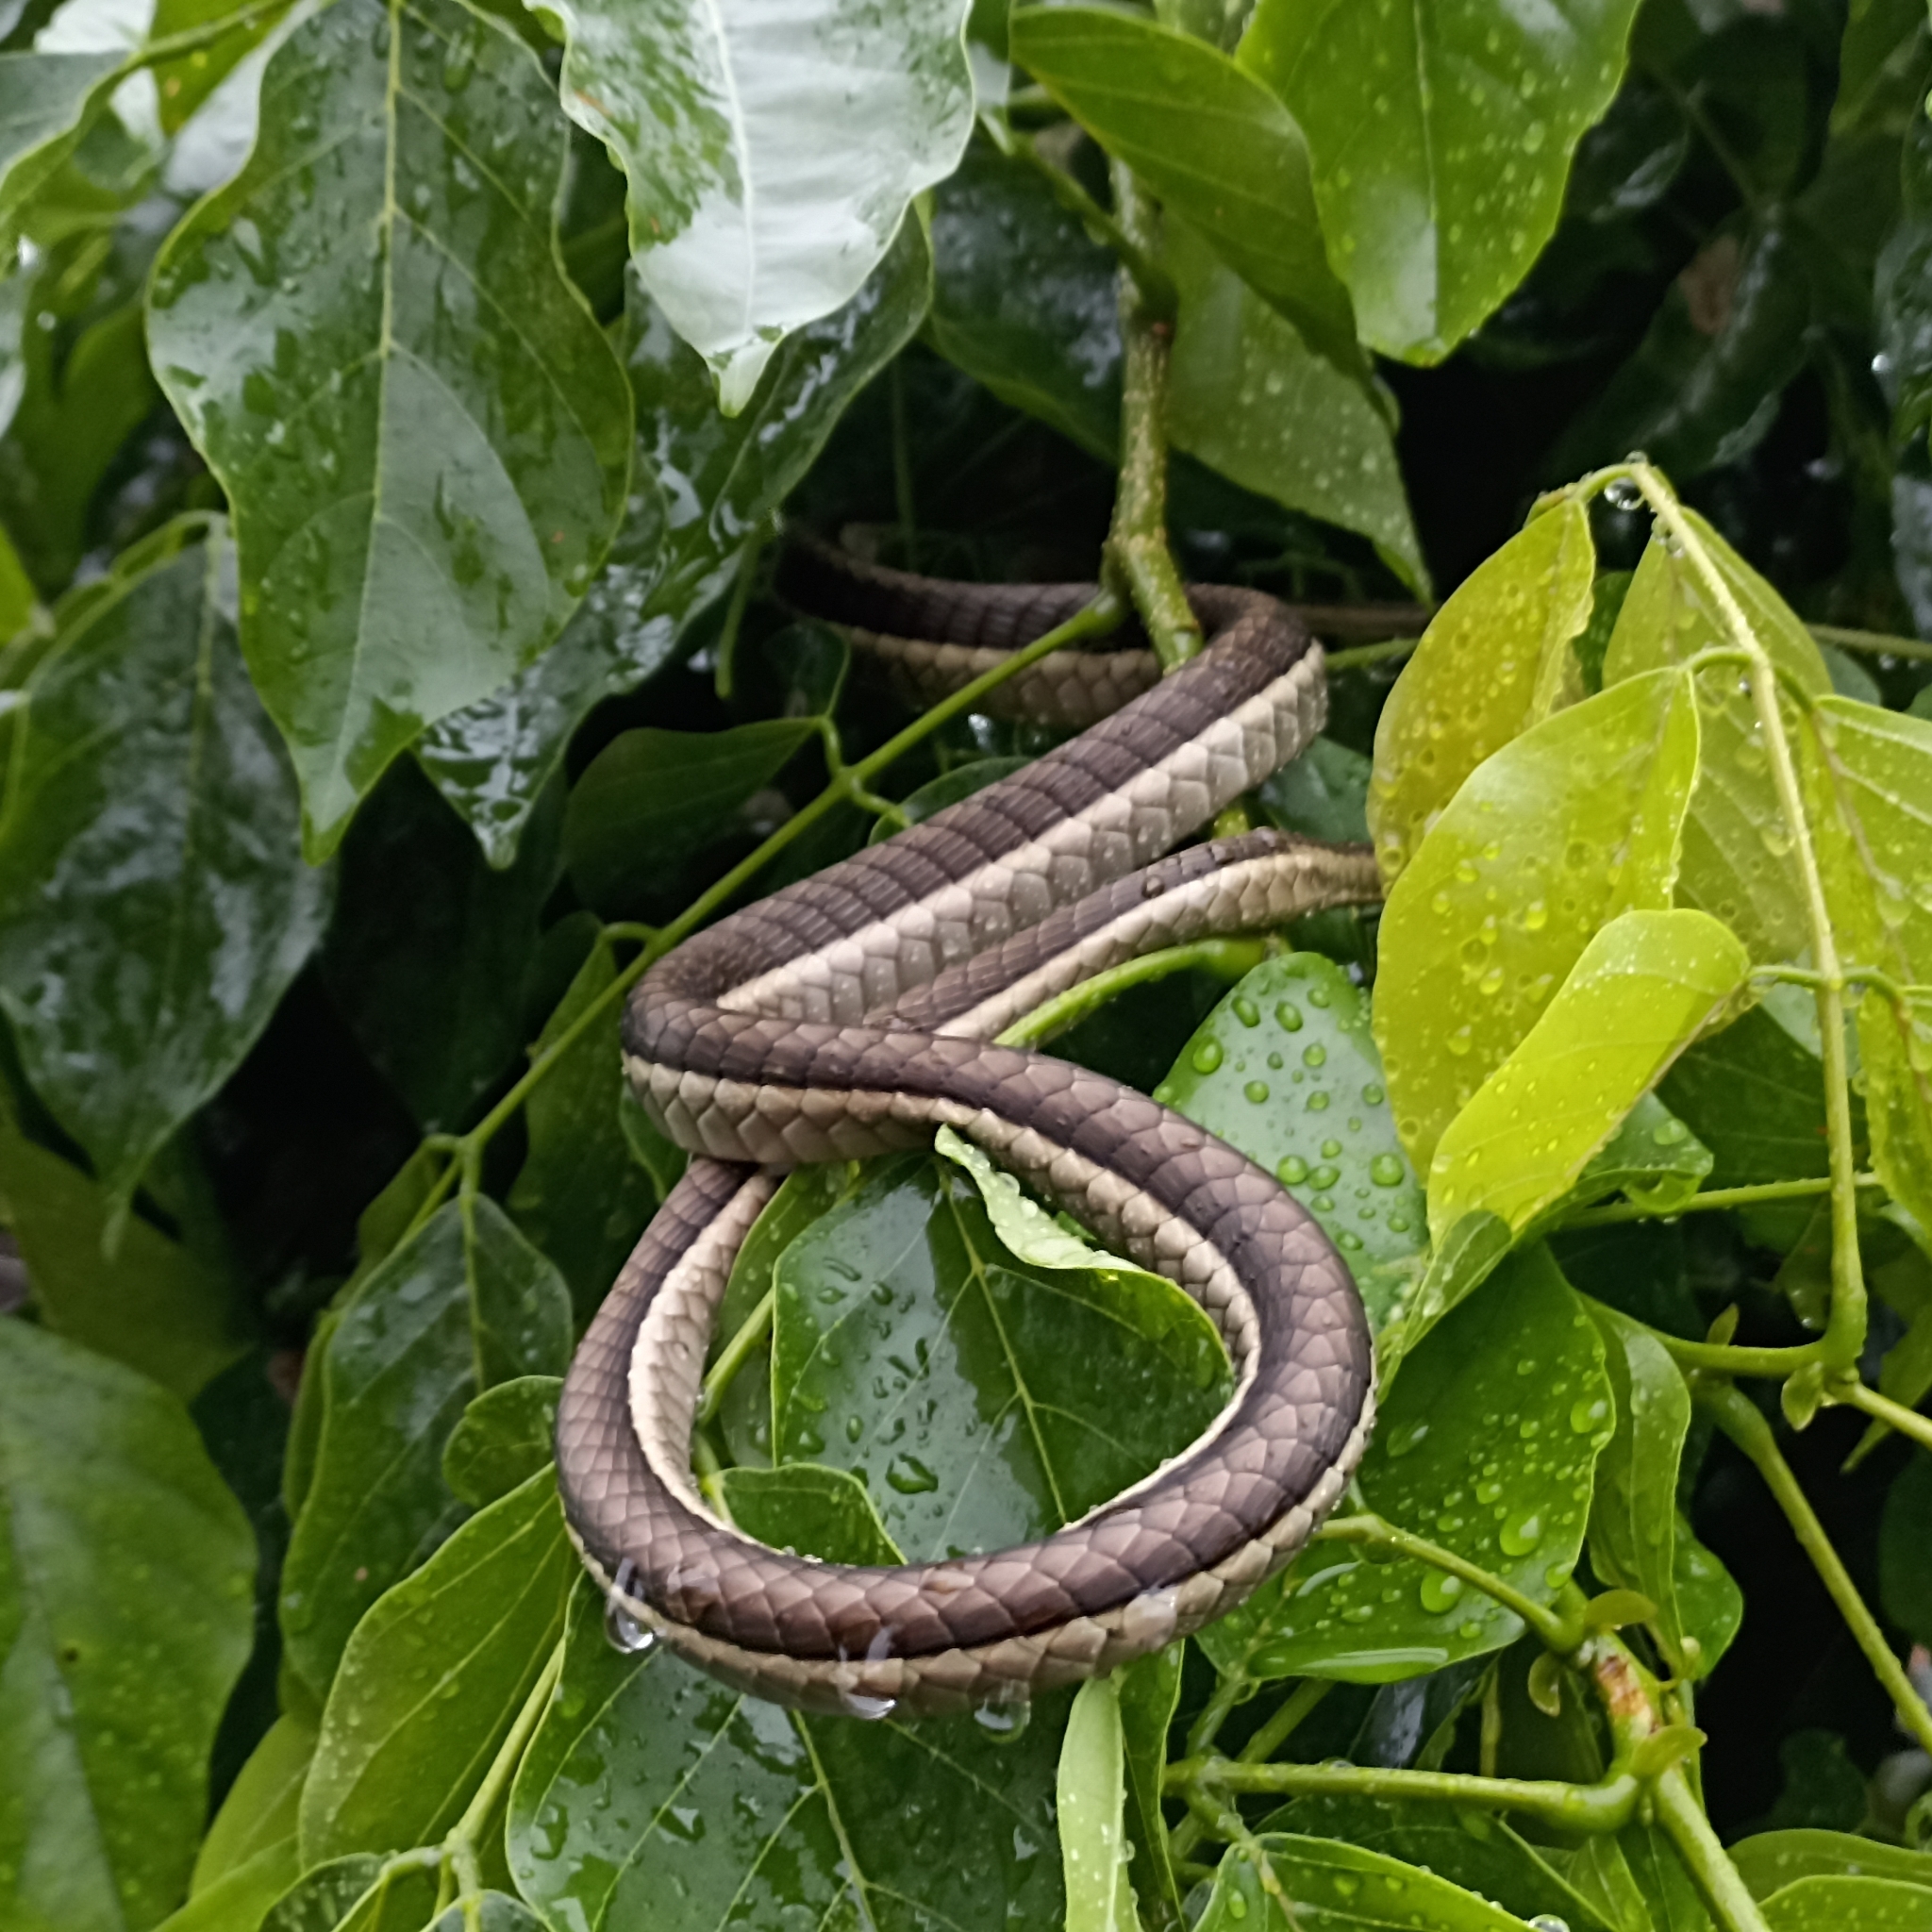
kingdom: Animalia
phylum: Chordata
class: Squamata
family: Colubridae
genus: Dendrelaphis
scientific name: Dendrelaphis tristis
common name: Daudin's bronzeback
